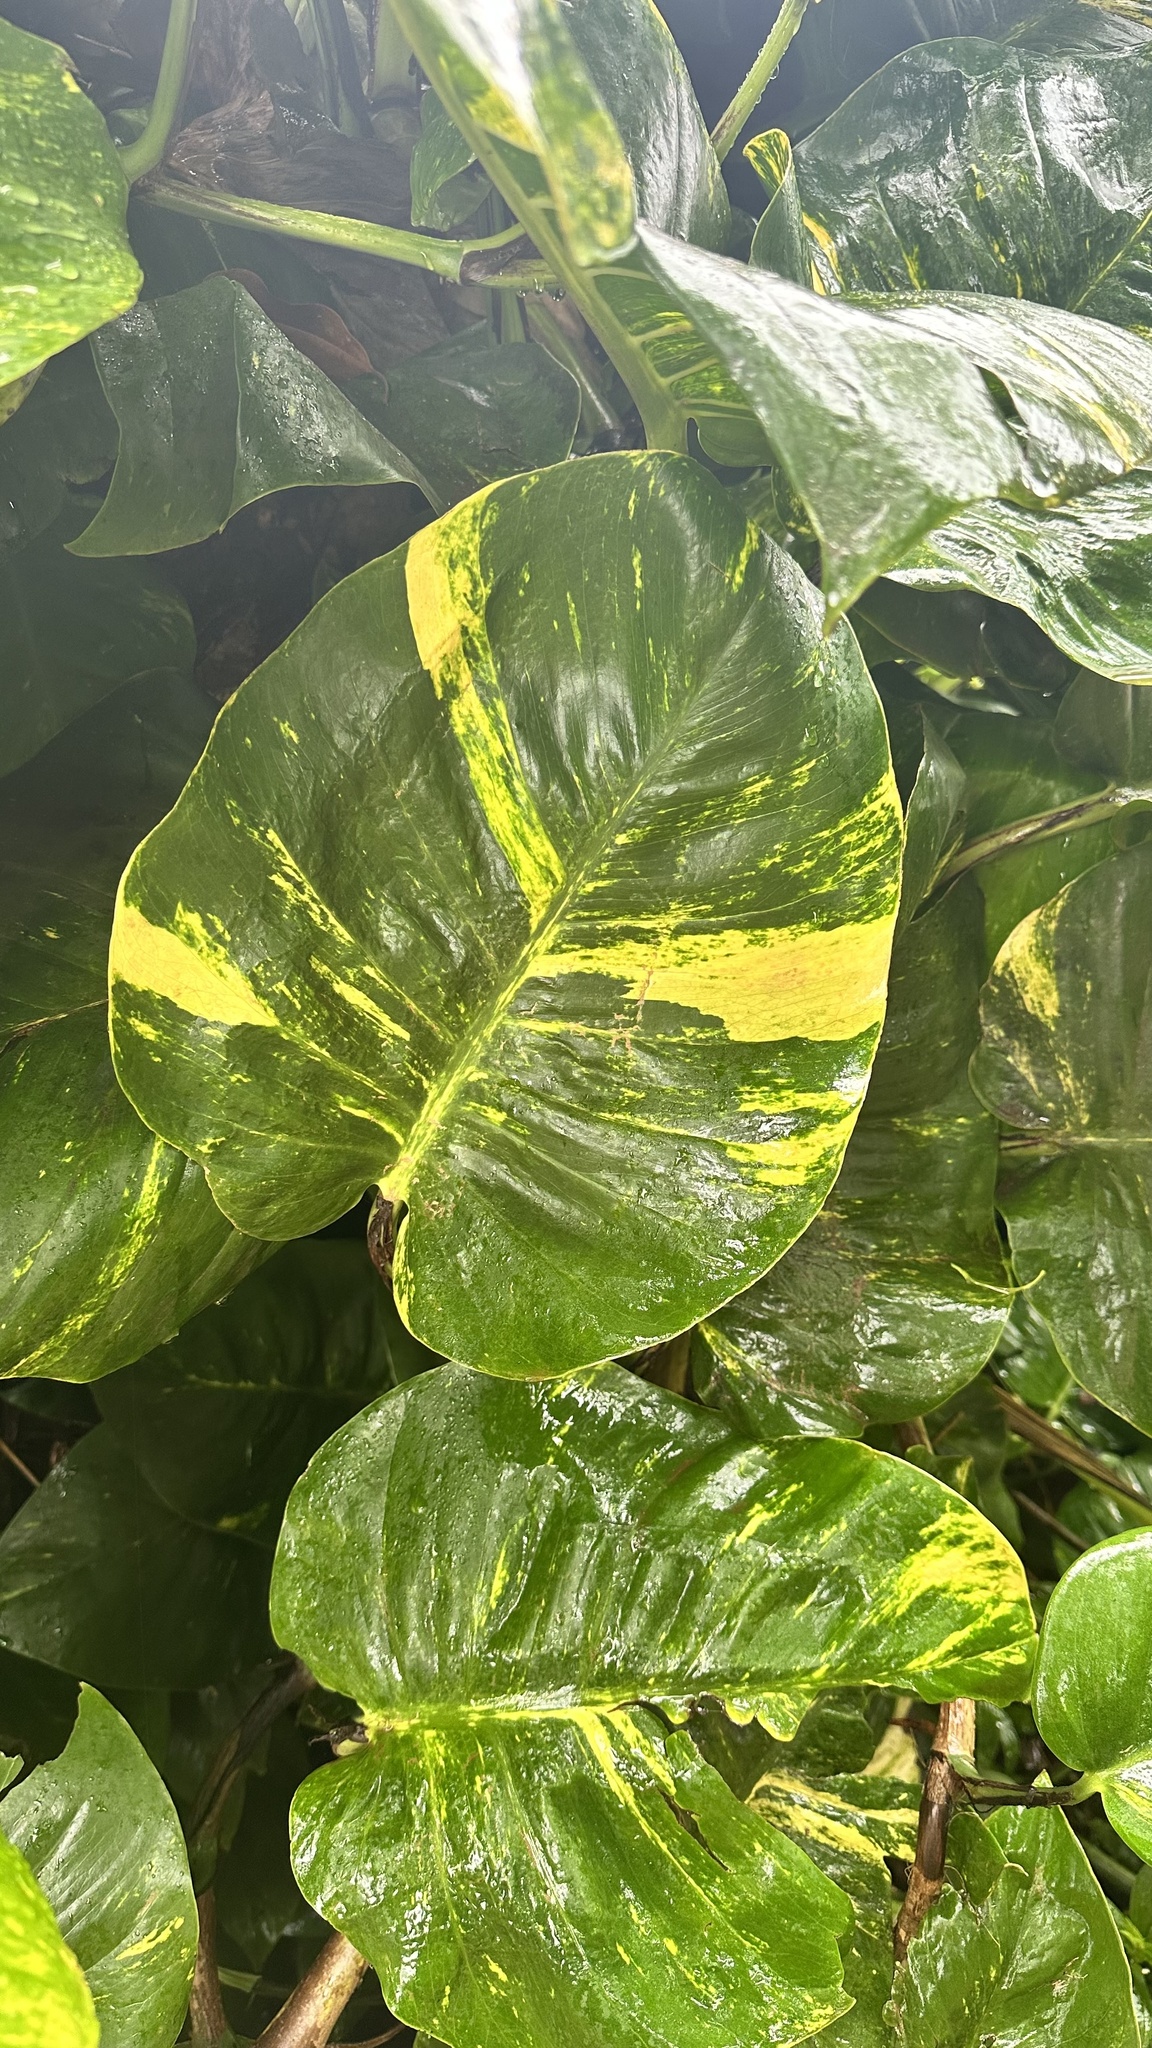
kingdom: Plantae
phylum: Tracheophyta
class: Liliopsida
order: Alismatales
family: Araceae
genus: Epipremnum
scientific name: Epipremnum aureum
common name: Golden hunter's-robe
